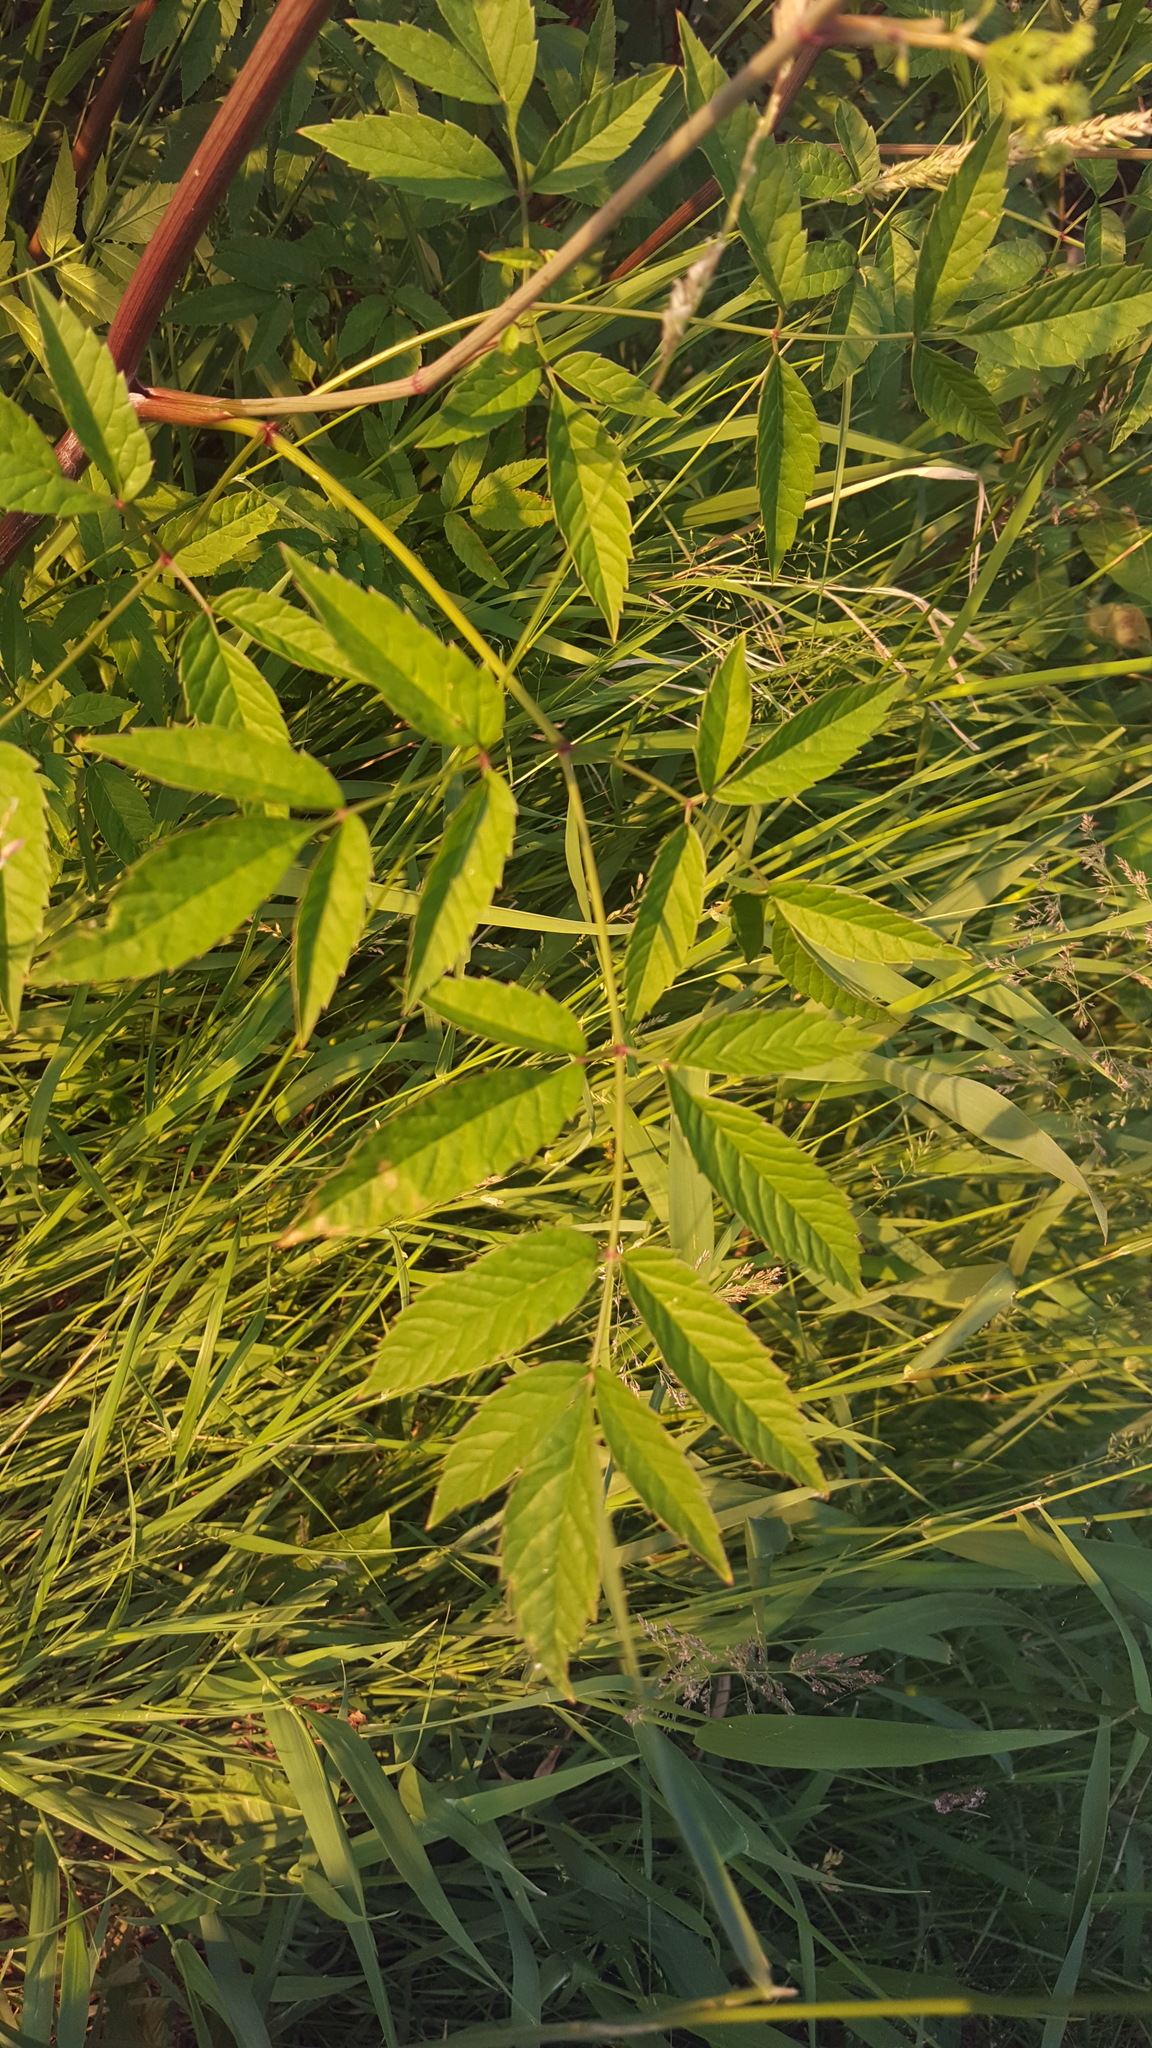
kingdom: Plantae
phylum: Tracheophyta
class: Magnoliopsida
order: Apiales
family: Apiaceae
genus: Cicuta
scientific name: Cicuta maculata
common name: Spotted cowbane
